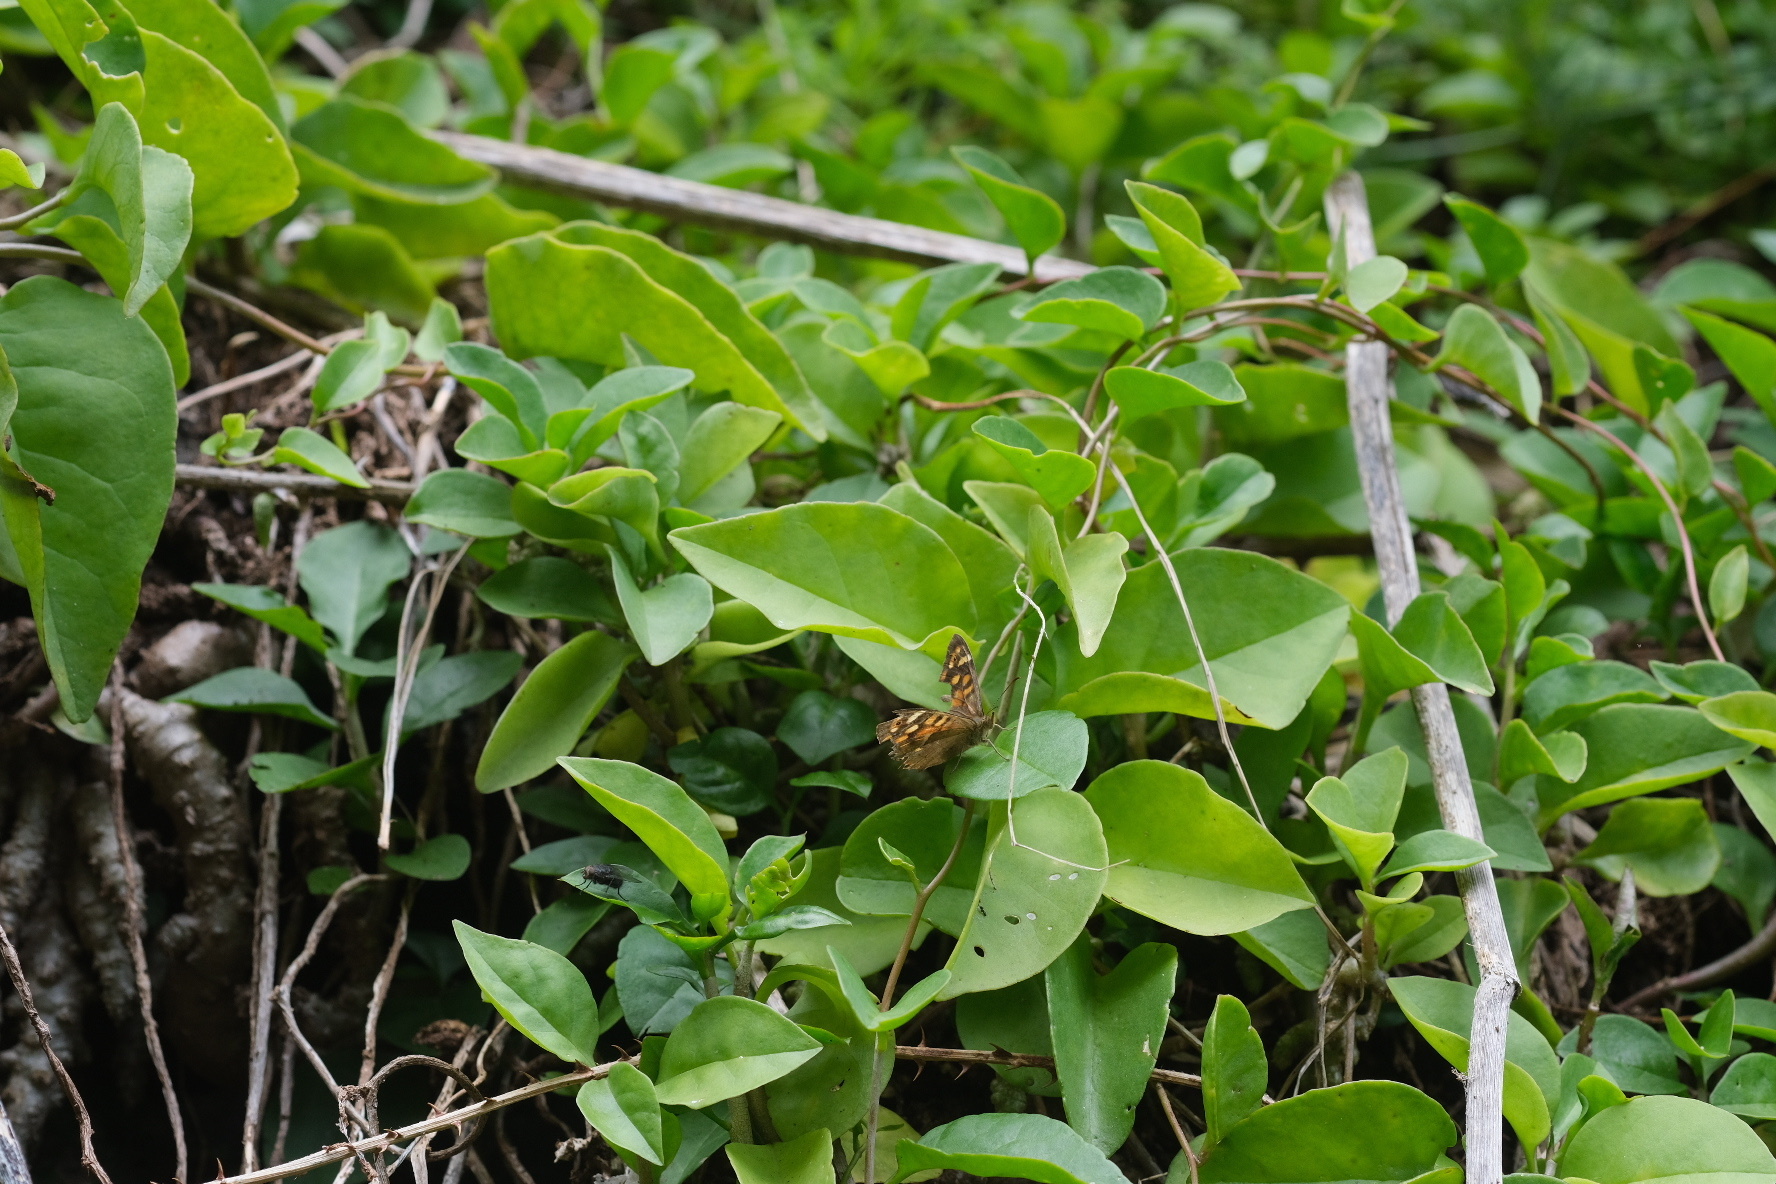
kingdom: Animalia
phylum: Arthropoda
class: Insecta
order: Lepidoptera
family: Nymphalidae
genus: Pararge
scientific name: Pararge aegeria
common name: Speckled wood
